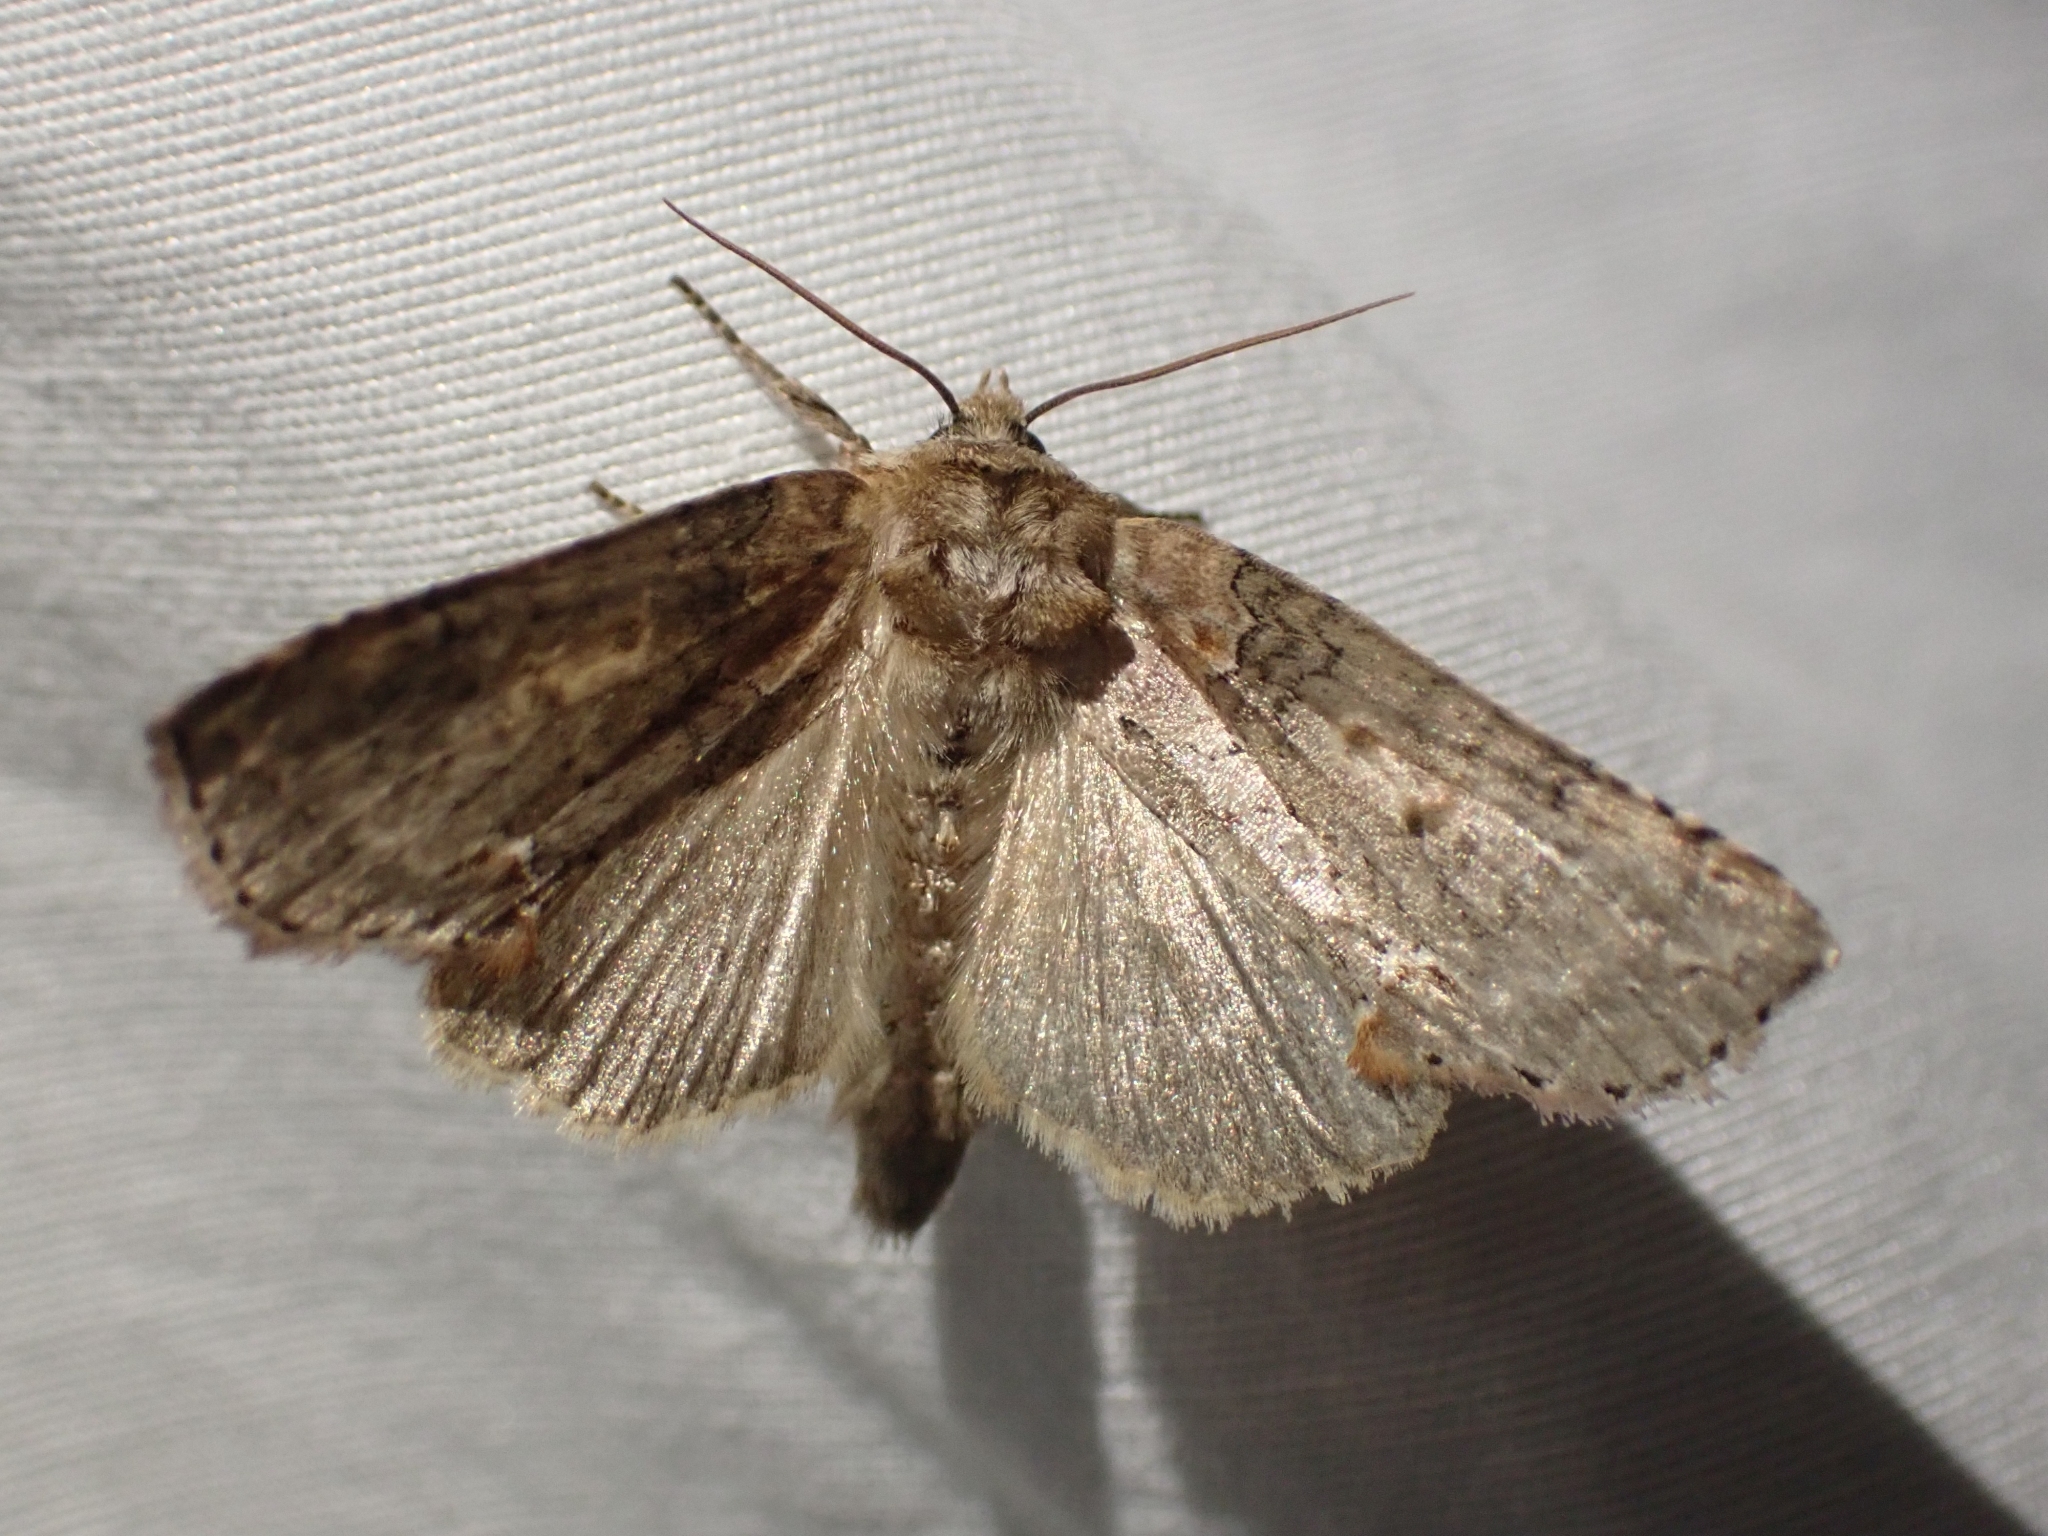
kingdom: Animalia
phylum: Arthropoda
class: Insecta
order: Lepidoptera
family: Drepanidae
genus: Pseudothyatira
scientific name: Pseudothyatira cymatophoroides
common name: Tufted thyatirid moth
